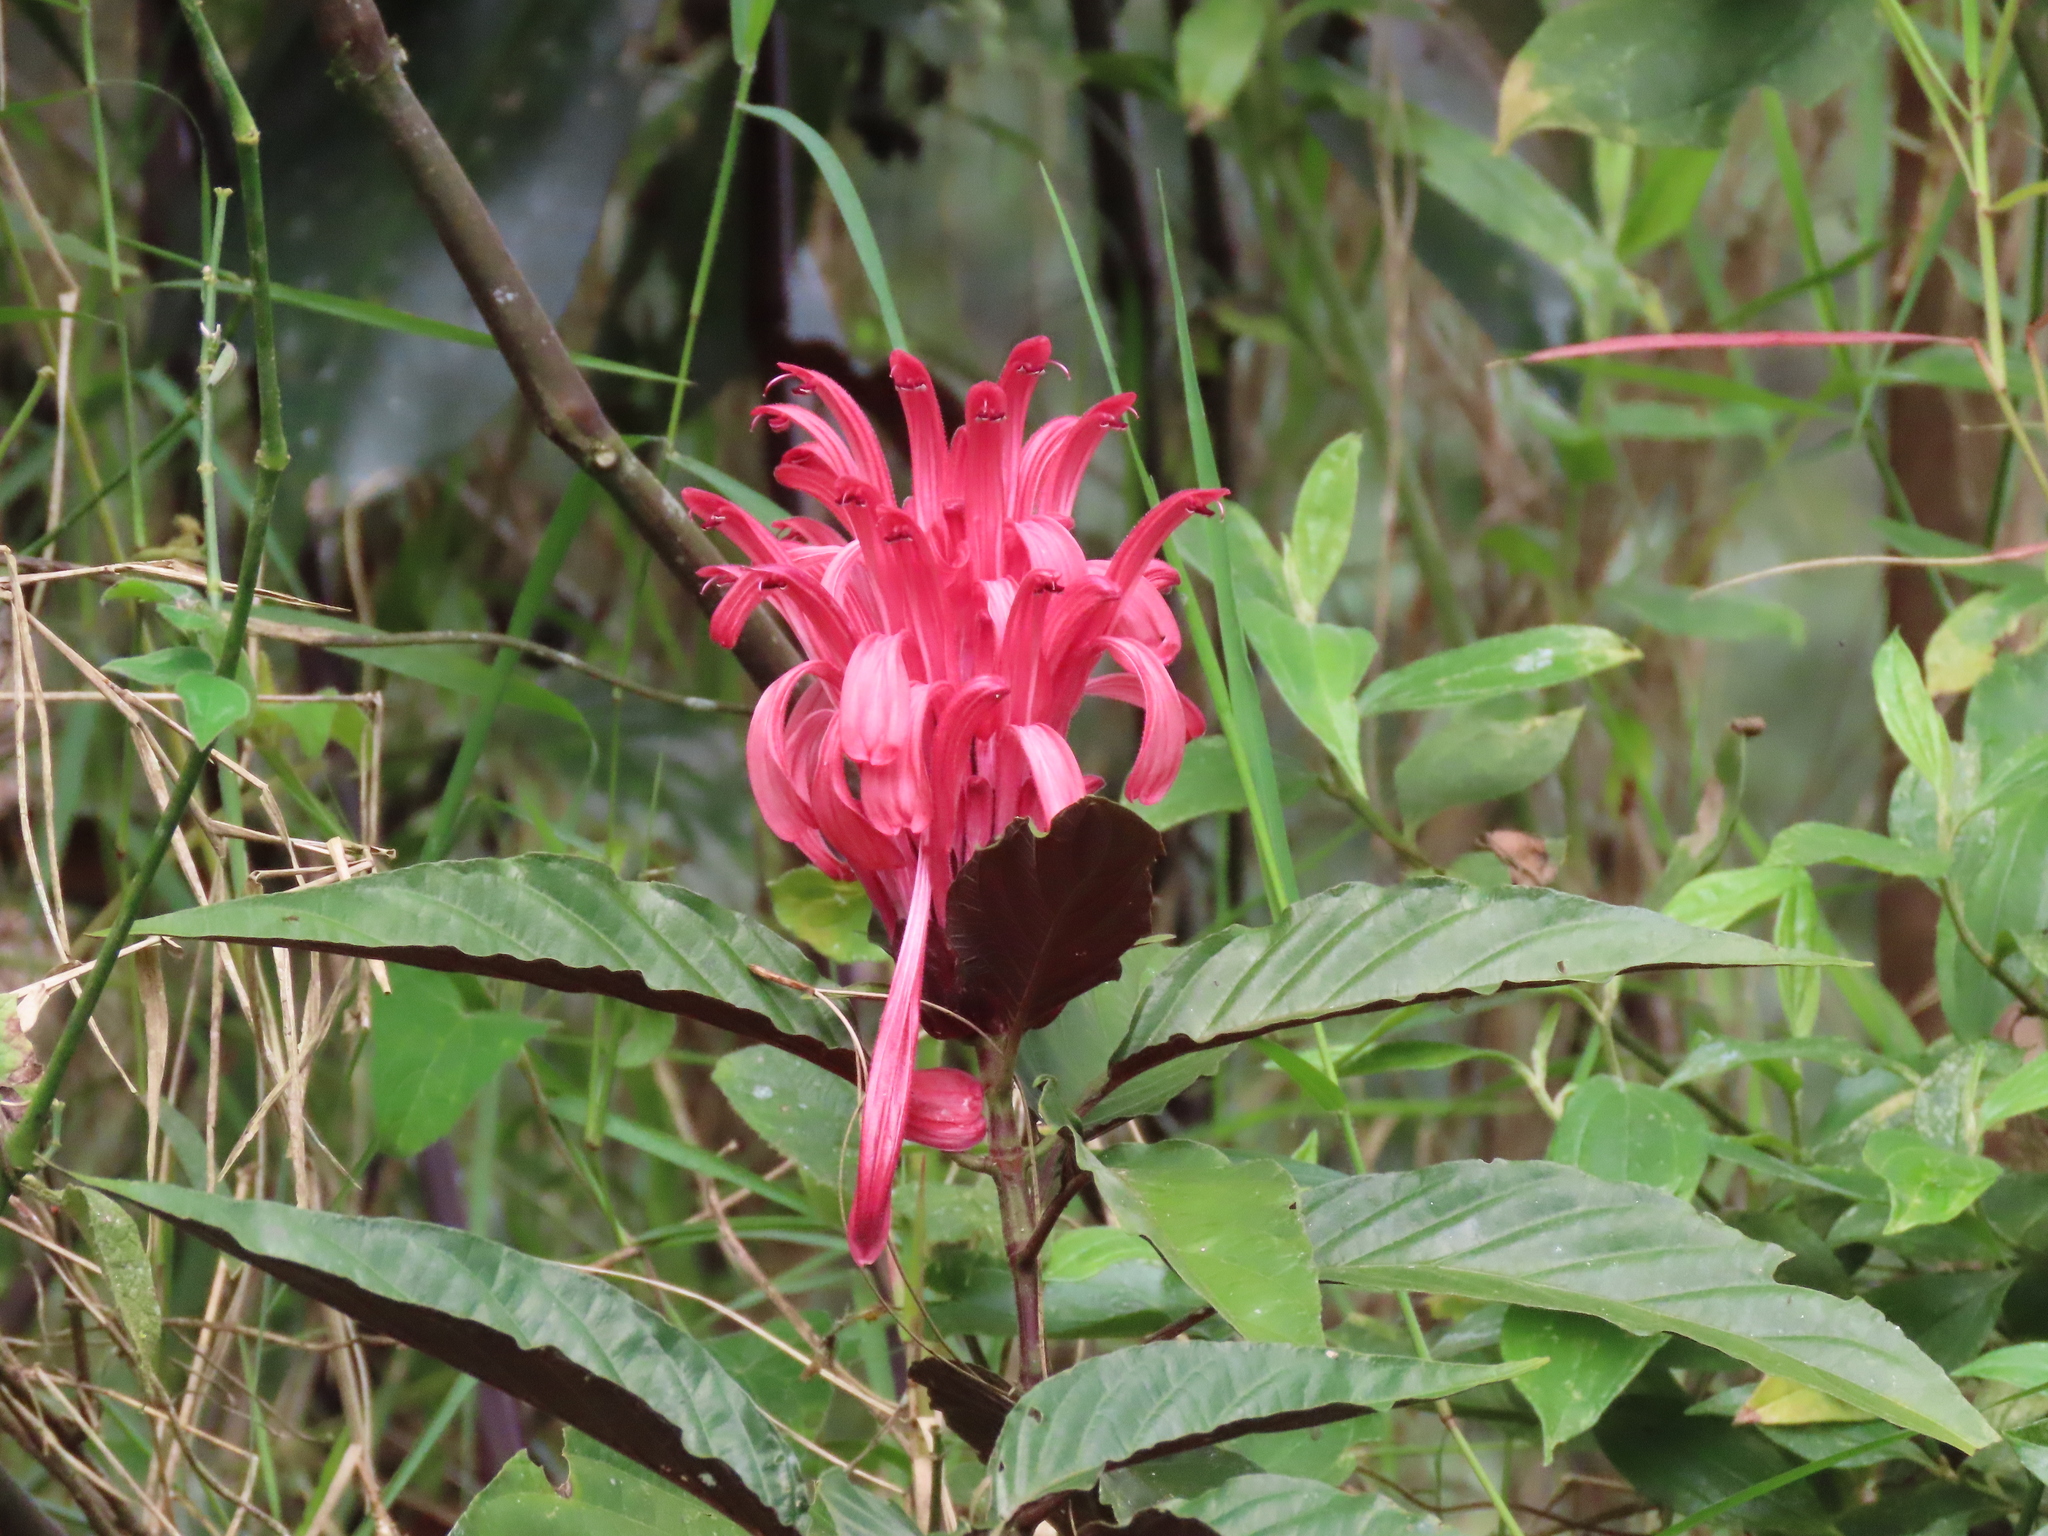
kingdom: Plantae
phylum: Tracheophyta
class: Magnoliopsida
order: Lamiales
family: Acanthaceae
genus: Justicia
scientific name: Justicia carnea
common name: Brazilian-plume
